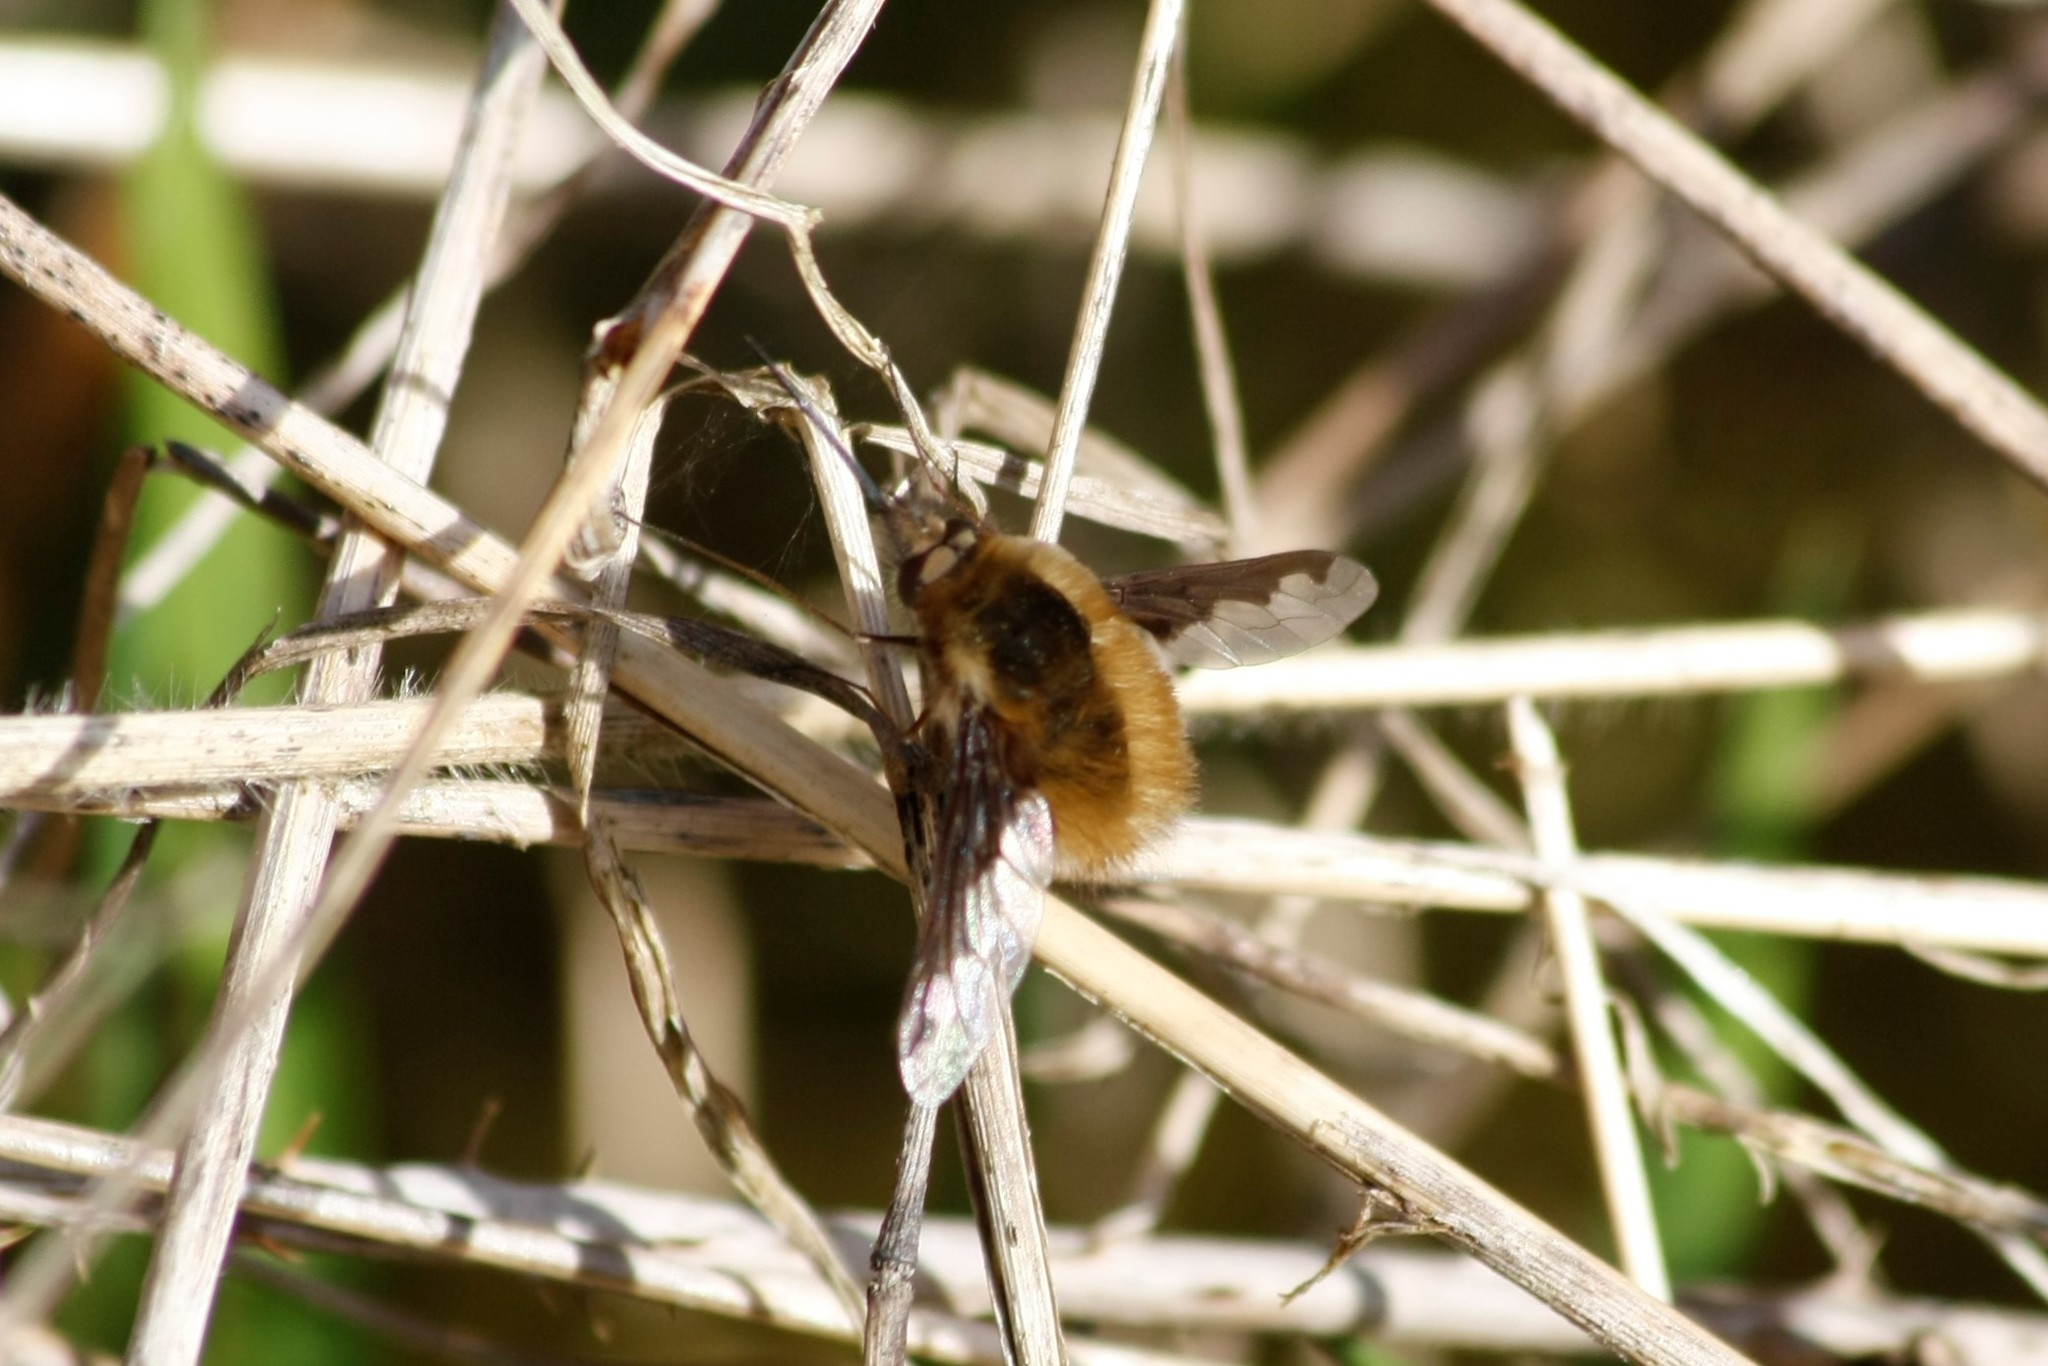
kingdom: Animalia
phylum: Arthropoda
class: Insecta
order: Diptera
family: Bombyliidae
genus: Bombylius
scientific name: Bombylius major
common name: Bee fly
